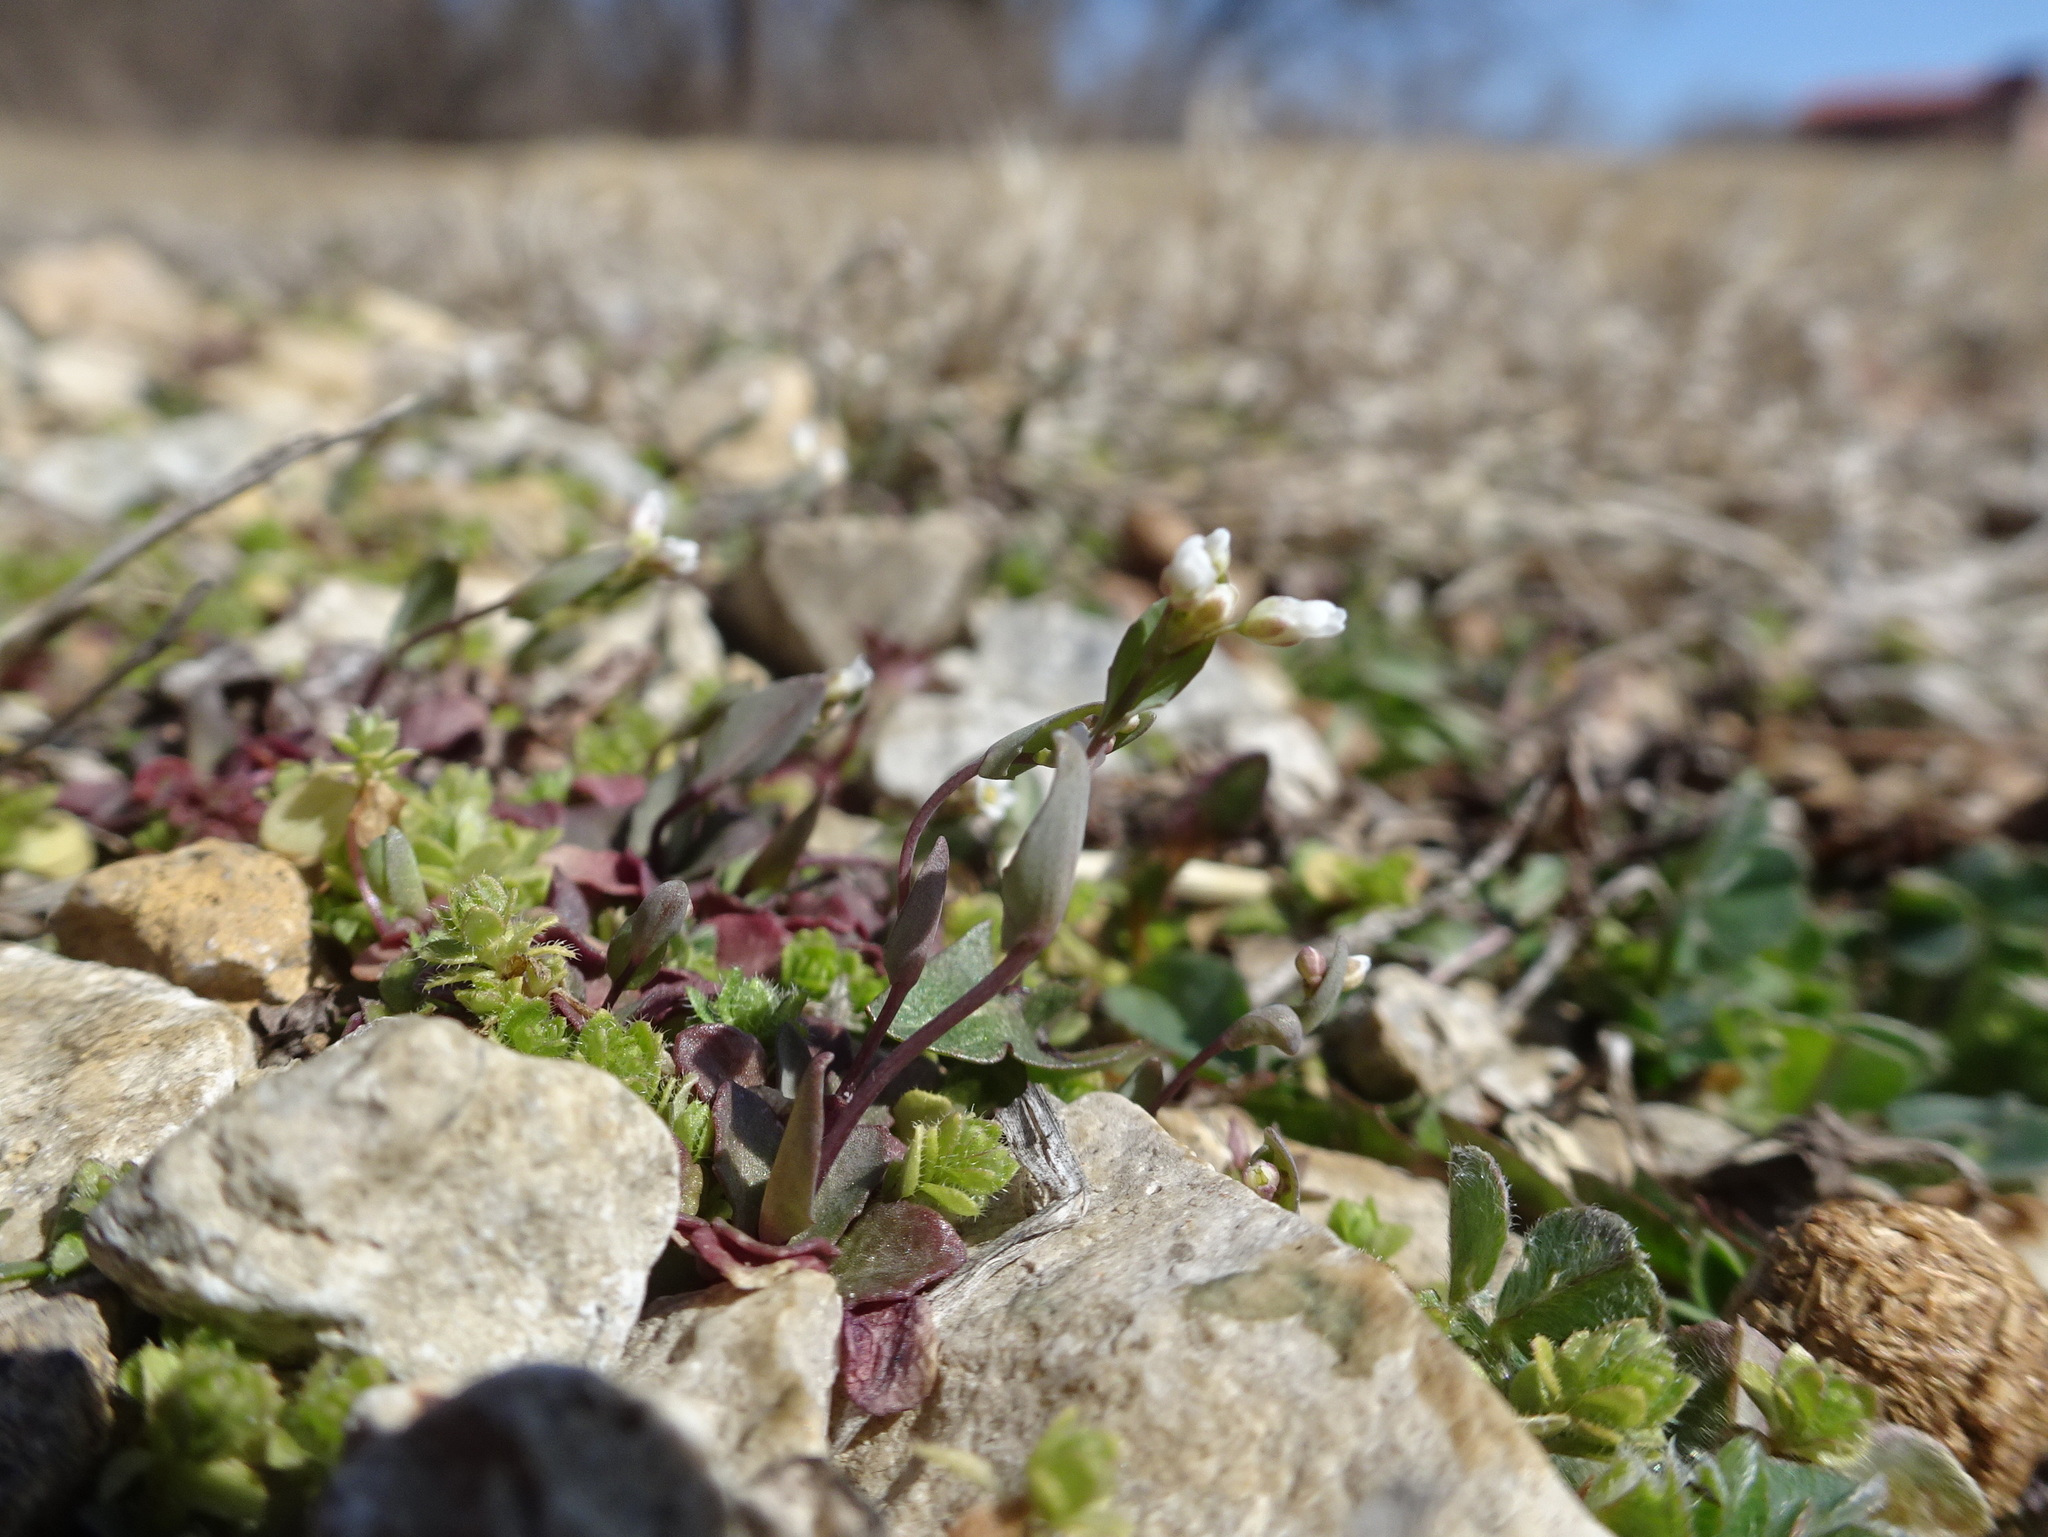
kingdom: Plantae
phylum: Tracheophyta
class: Magnoliopsida
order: Brassicales
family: Brassicaceae
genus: Noccaea
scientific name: Noccaea perfoliata
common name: Perfoliate pennycress
